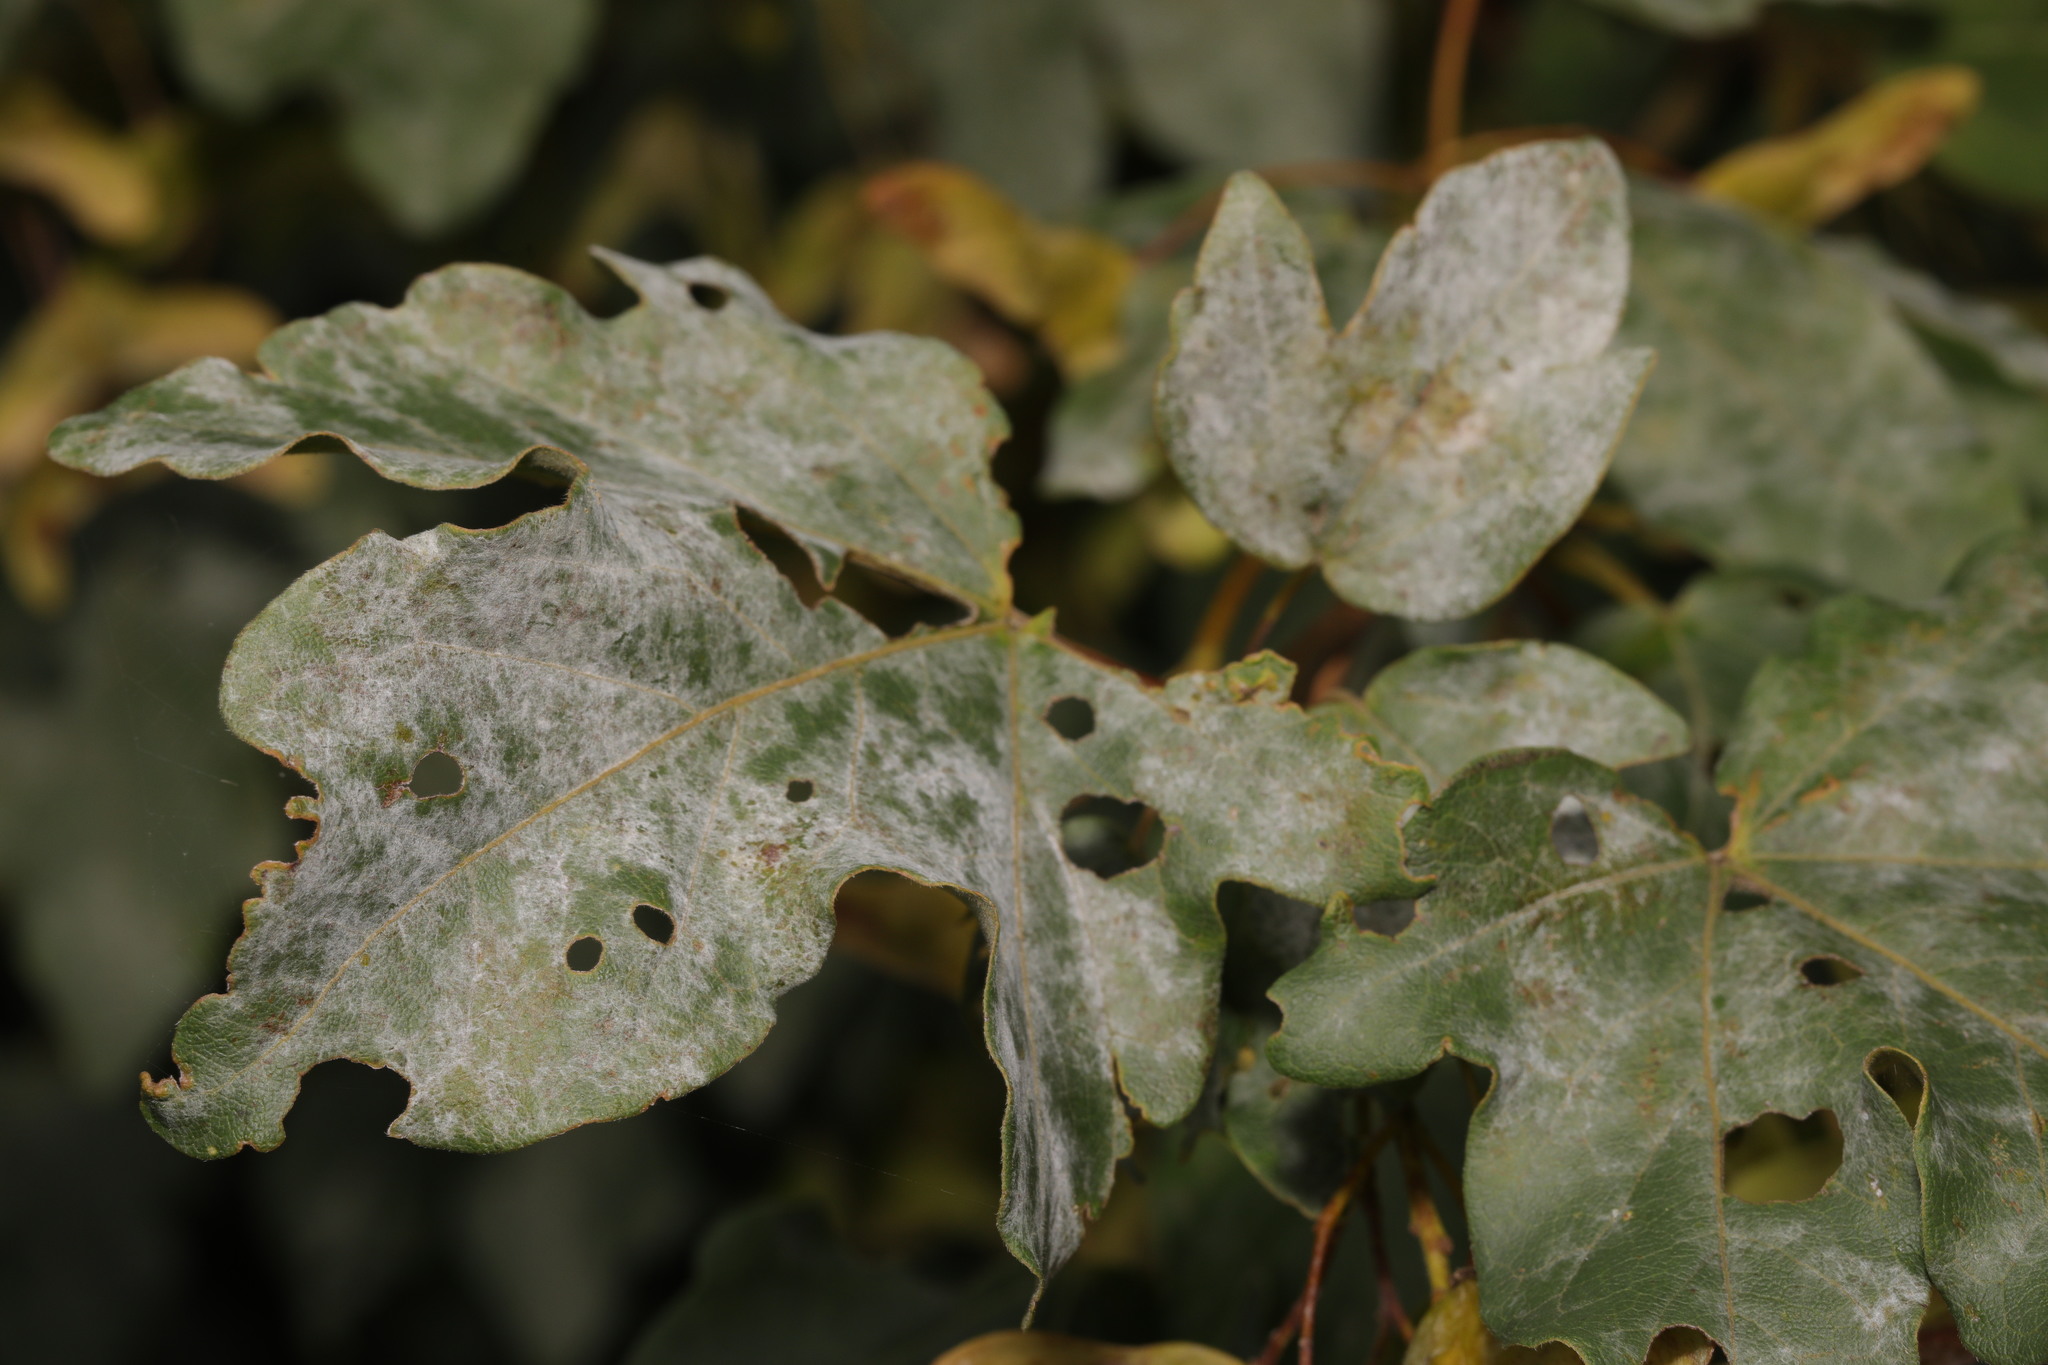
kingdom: Fungi
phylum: Ascomycota
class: Leotiomycetes
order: Helotiales
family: Erysiphaceae
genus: Sawadaea
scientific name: Sawadaea bicornis
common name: Maple mildew
